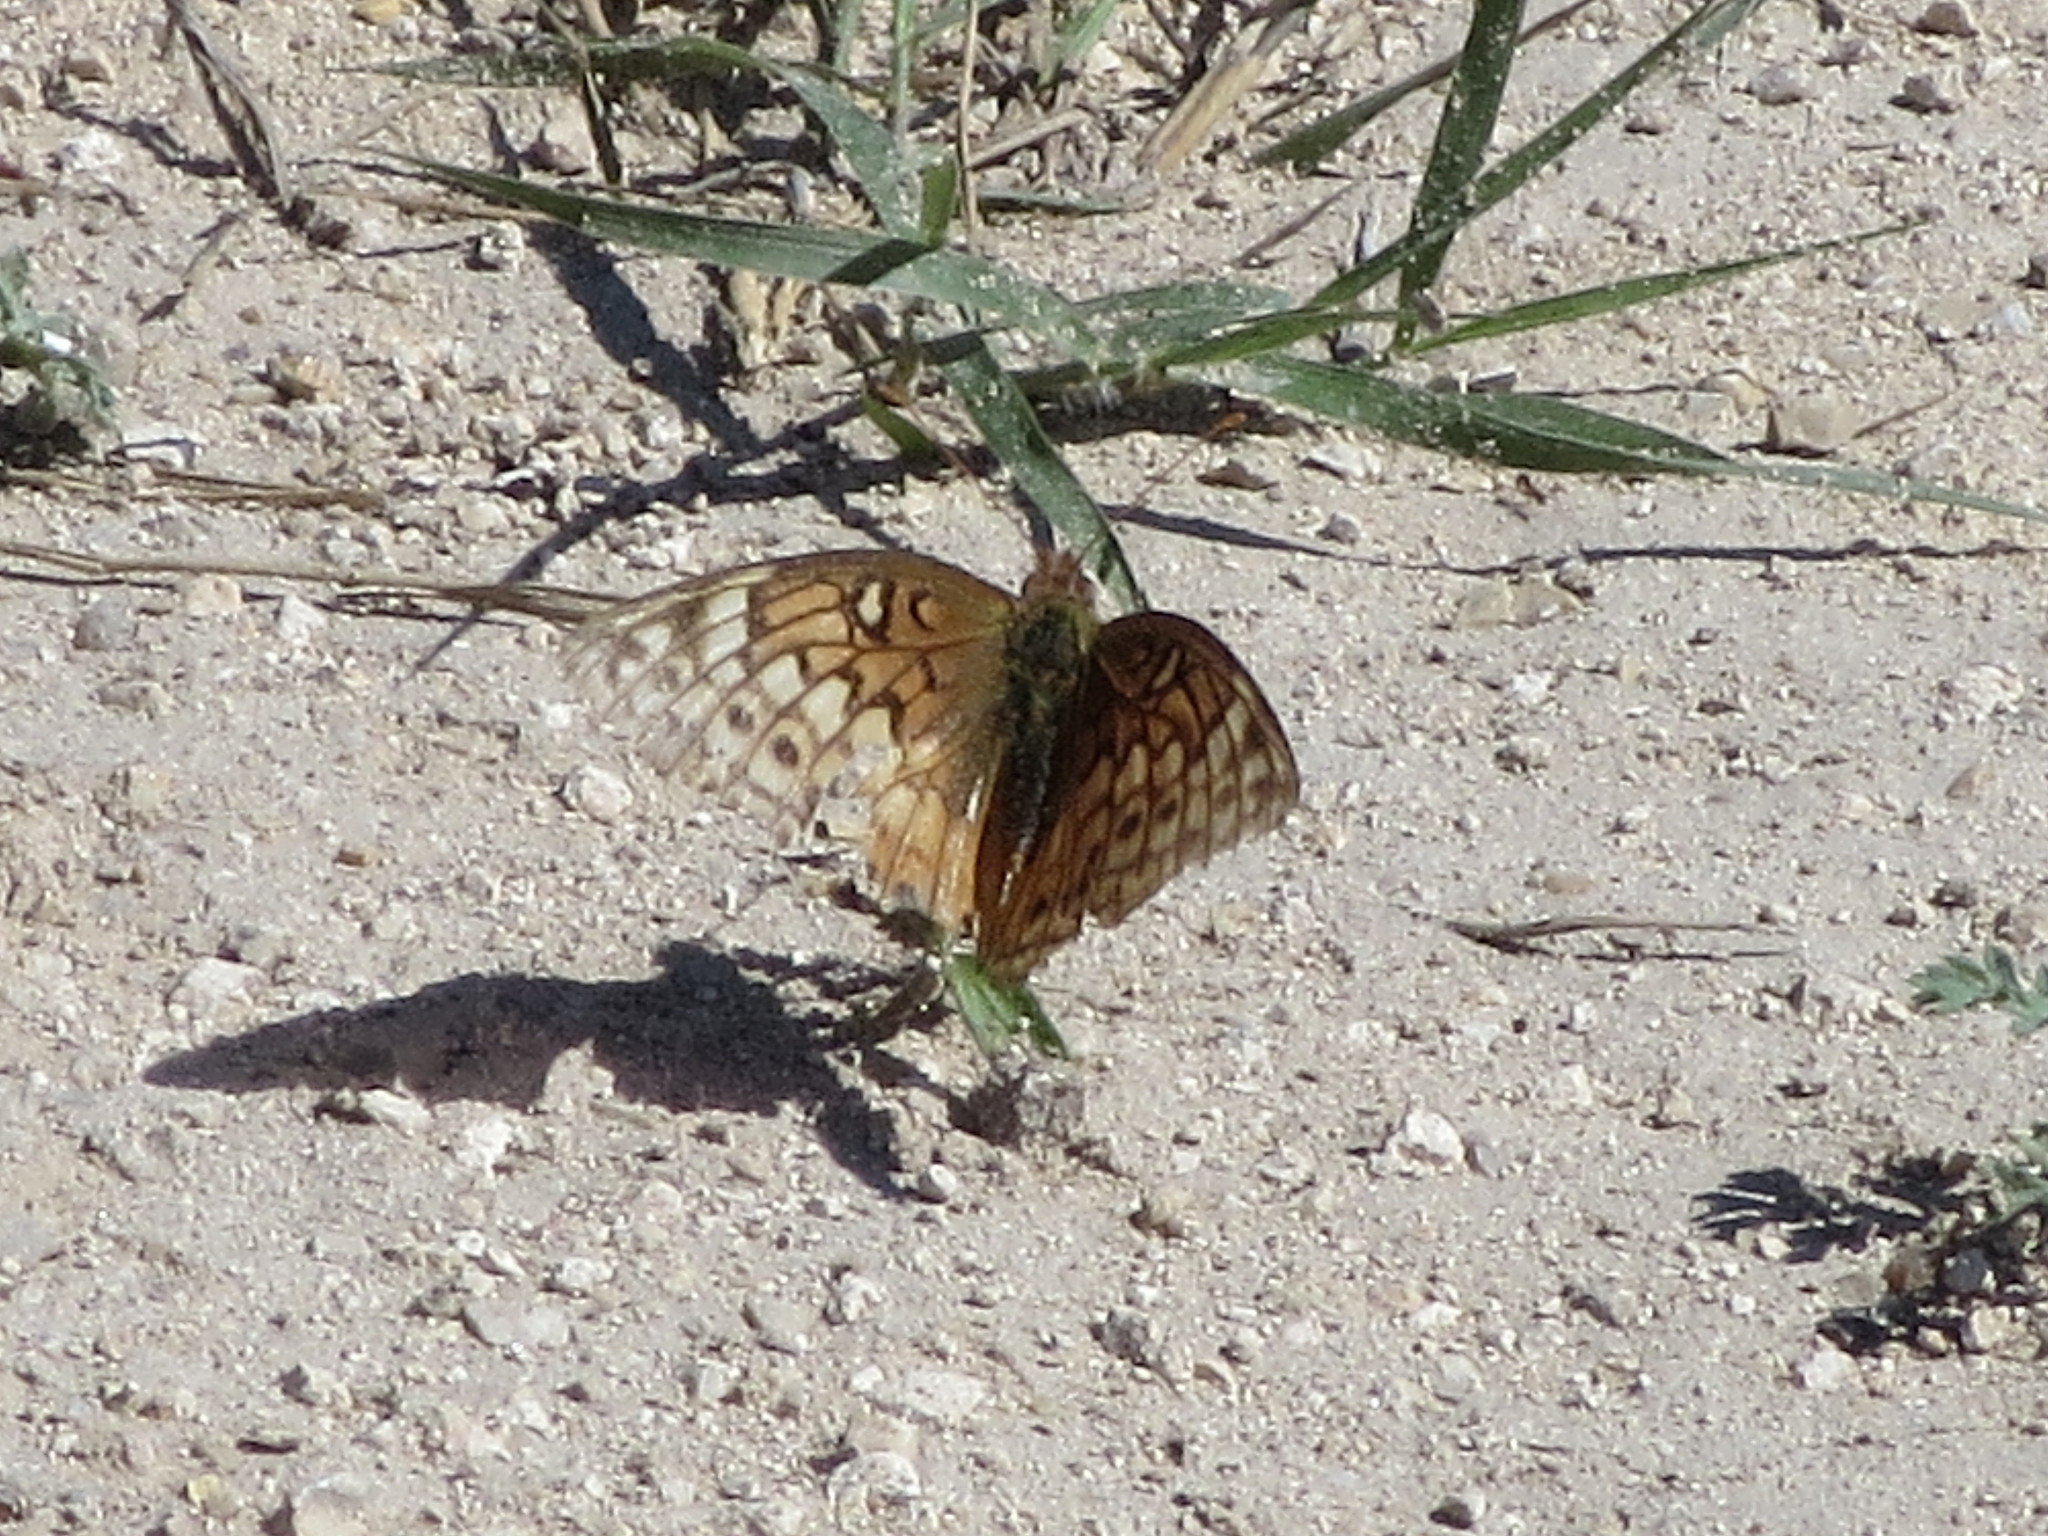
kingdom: Animalia
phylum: Arthropoda
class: Insecta
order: Lepidoptera
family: Nymphalidae
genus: Euptoieta
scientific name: Euptoieta claudia
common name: Variegated fritillary
